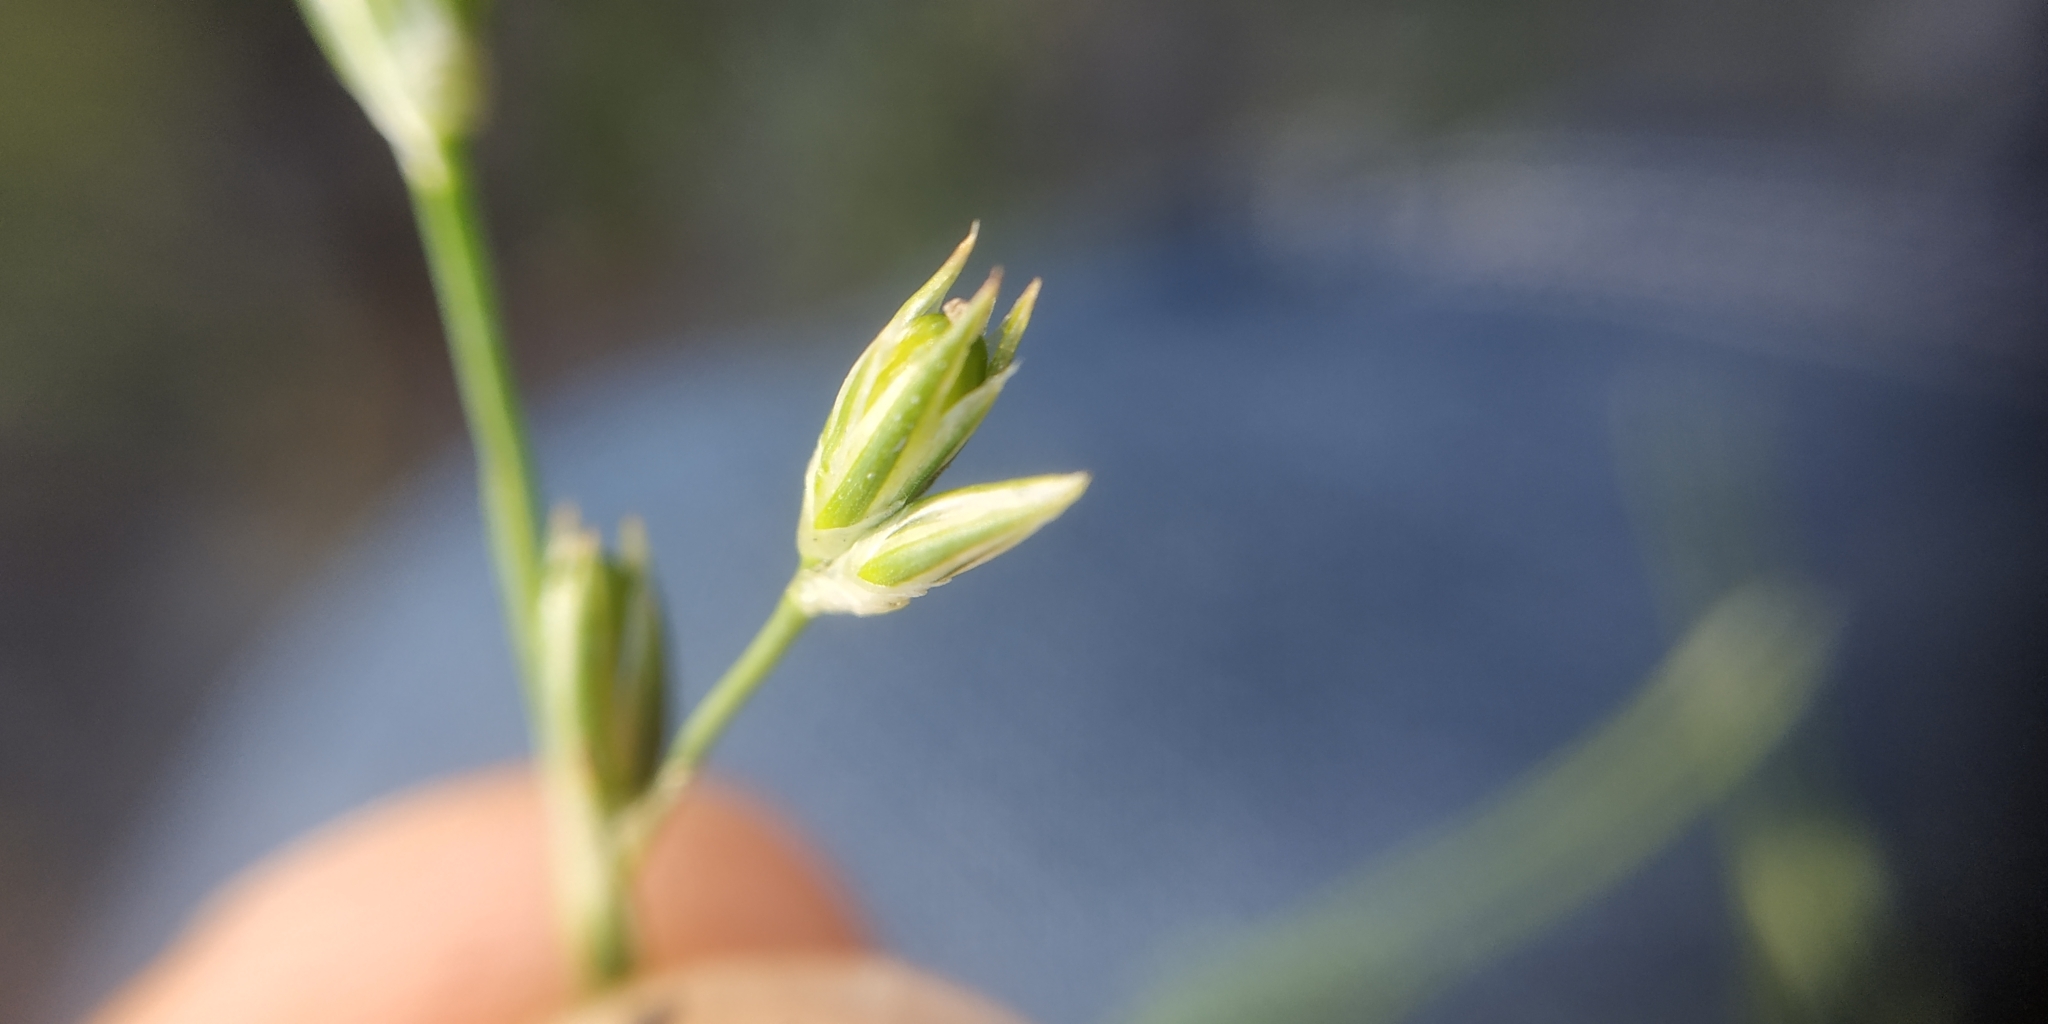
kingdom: Plantae
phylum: Tracheophyta
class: Liliopsida
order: Poales
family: Juncaceae
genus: Juncus
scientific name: Juncus bufonius
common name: Toad rush
